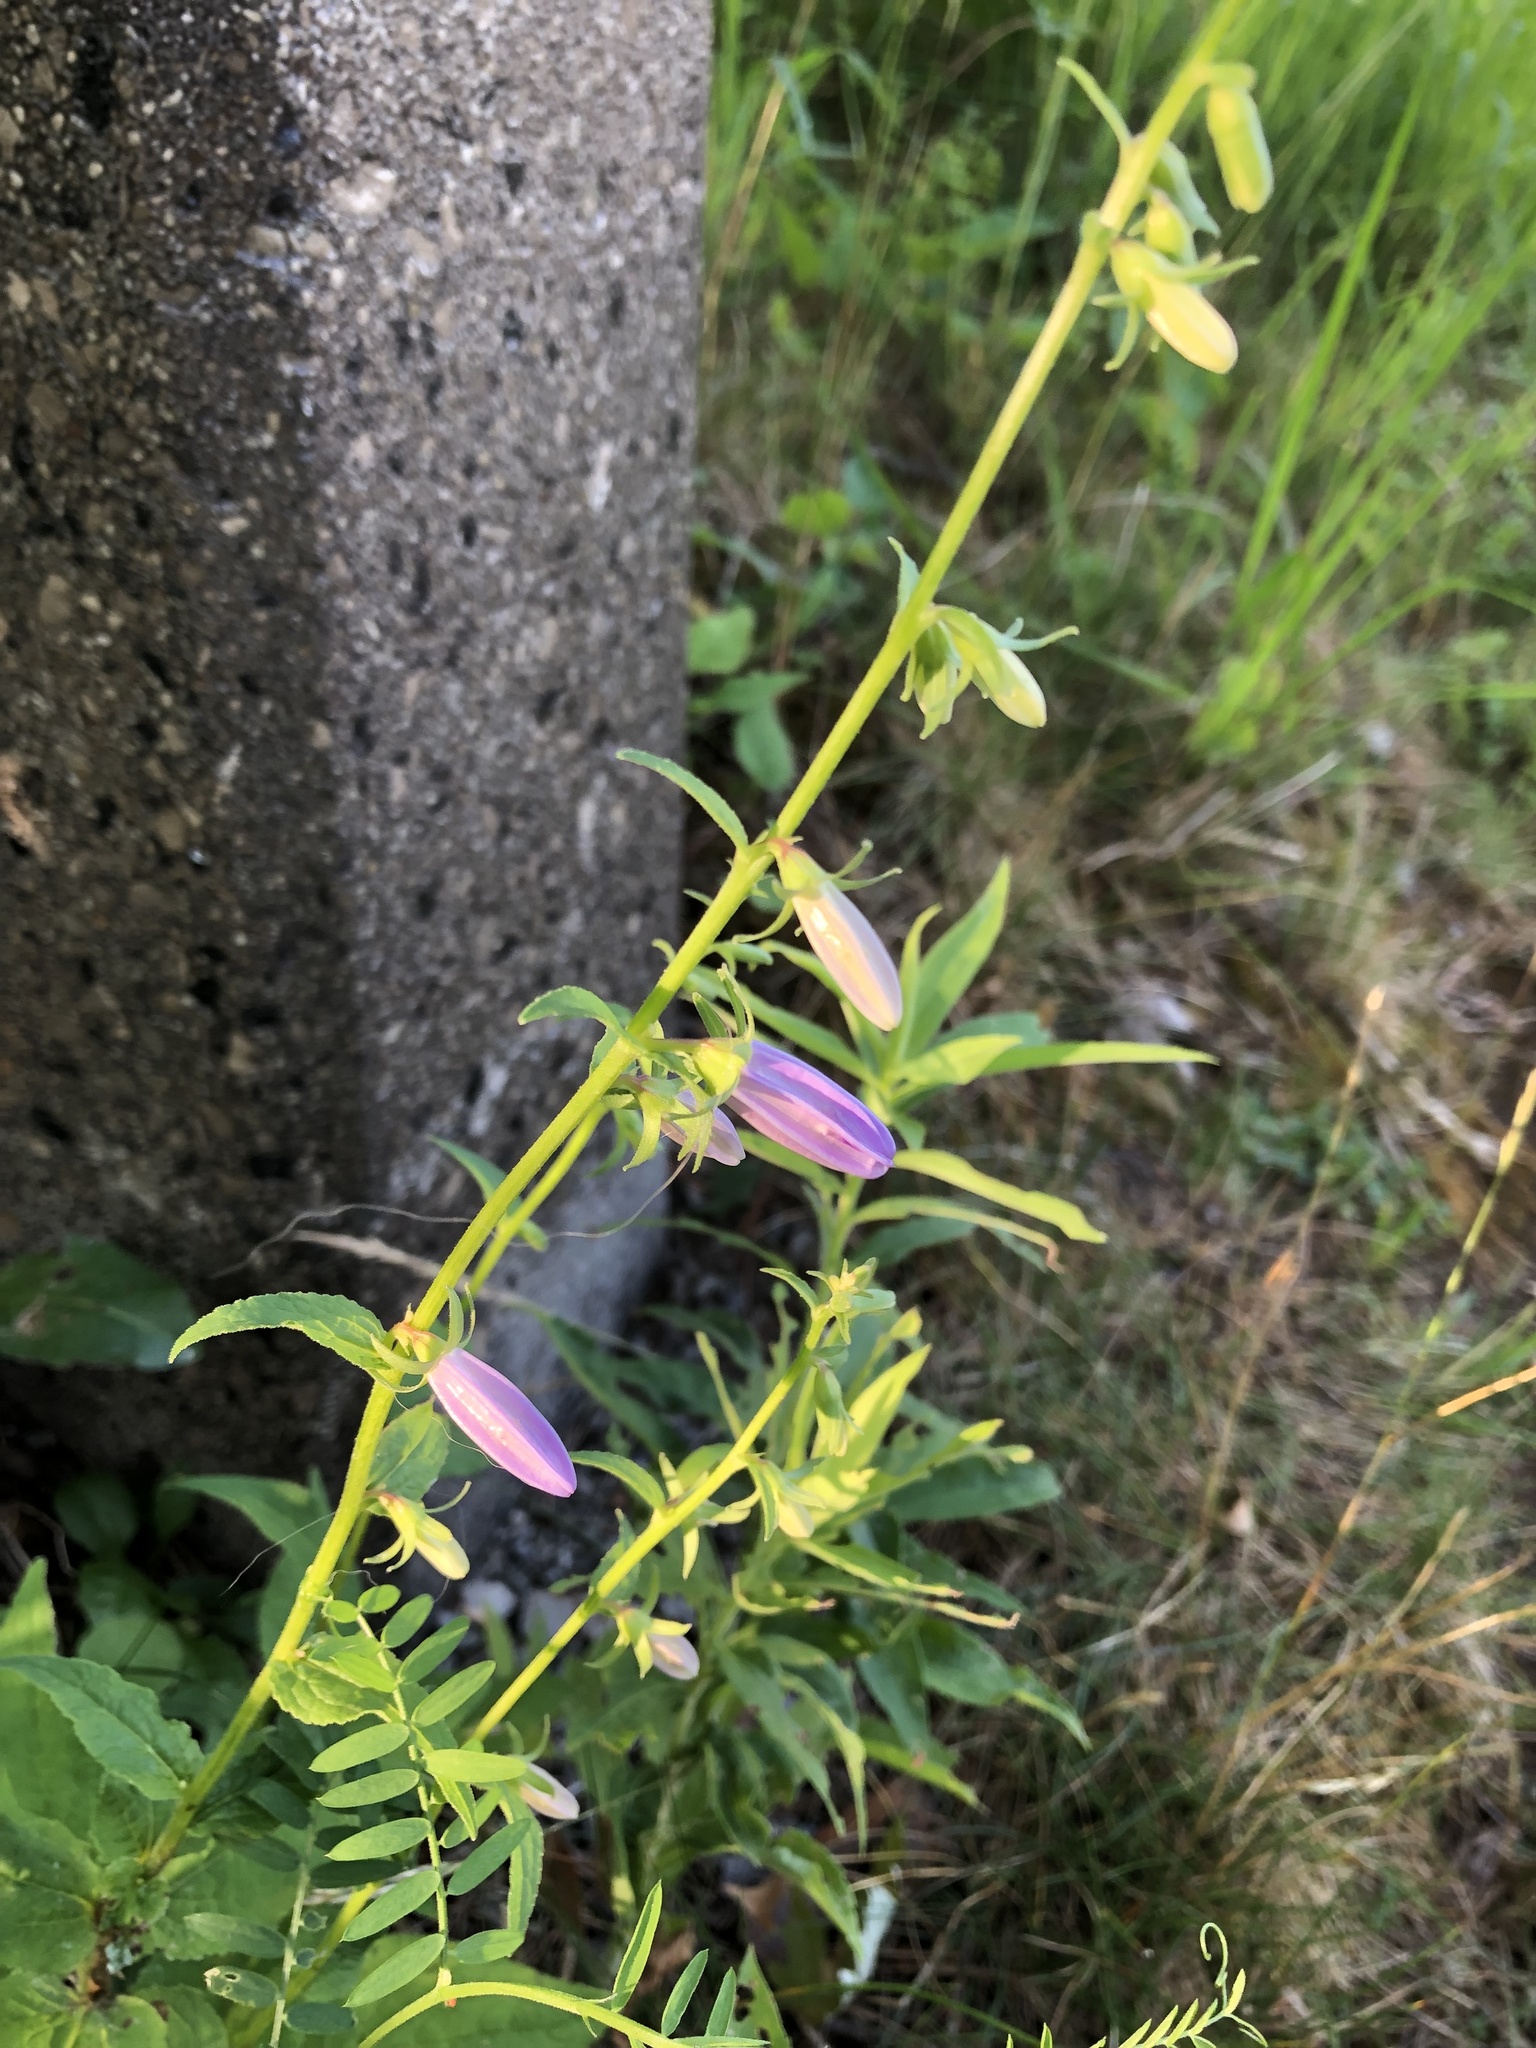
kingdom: Plantae
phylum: Tracheophyta
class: Magnoliopsida
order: Asterales
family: Campanulaceae
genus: Campanula
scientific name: Campanula rapunculoides
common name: Creeping bellflower
